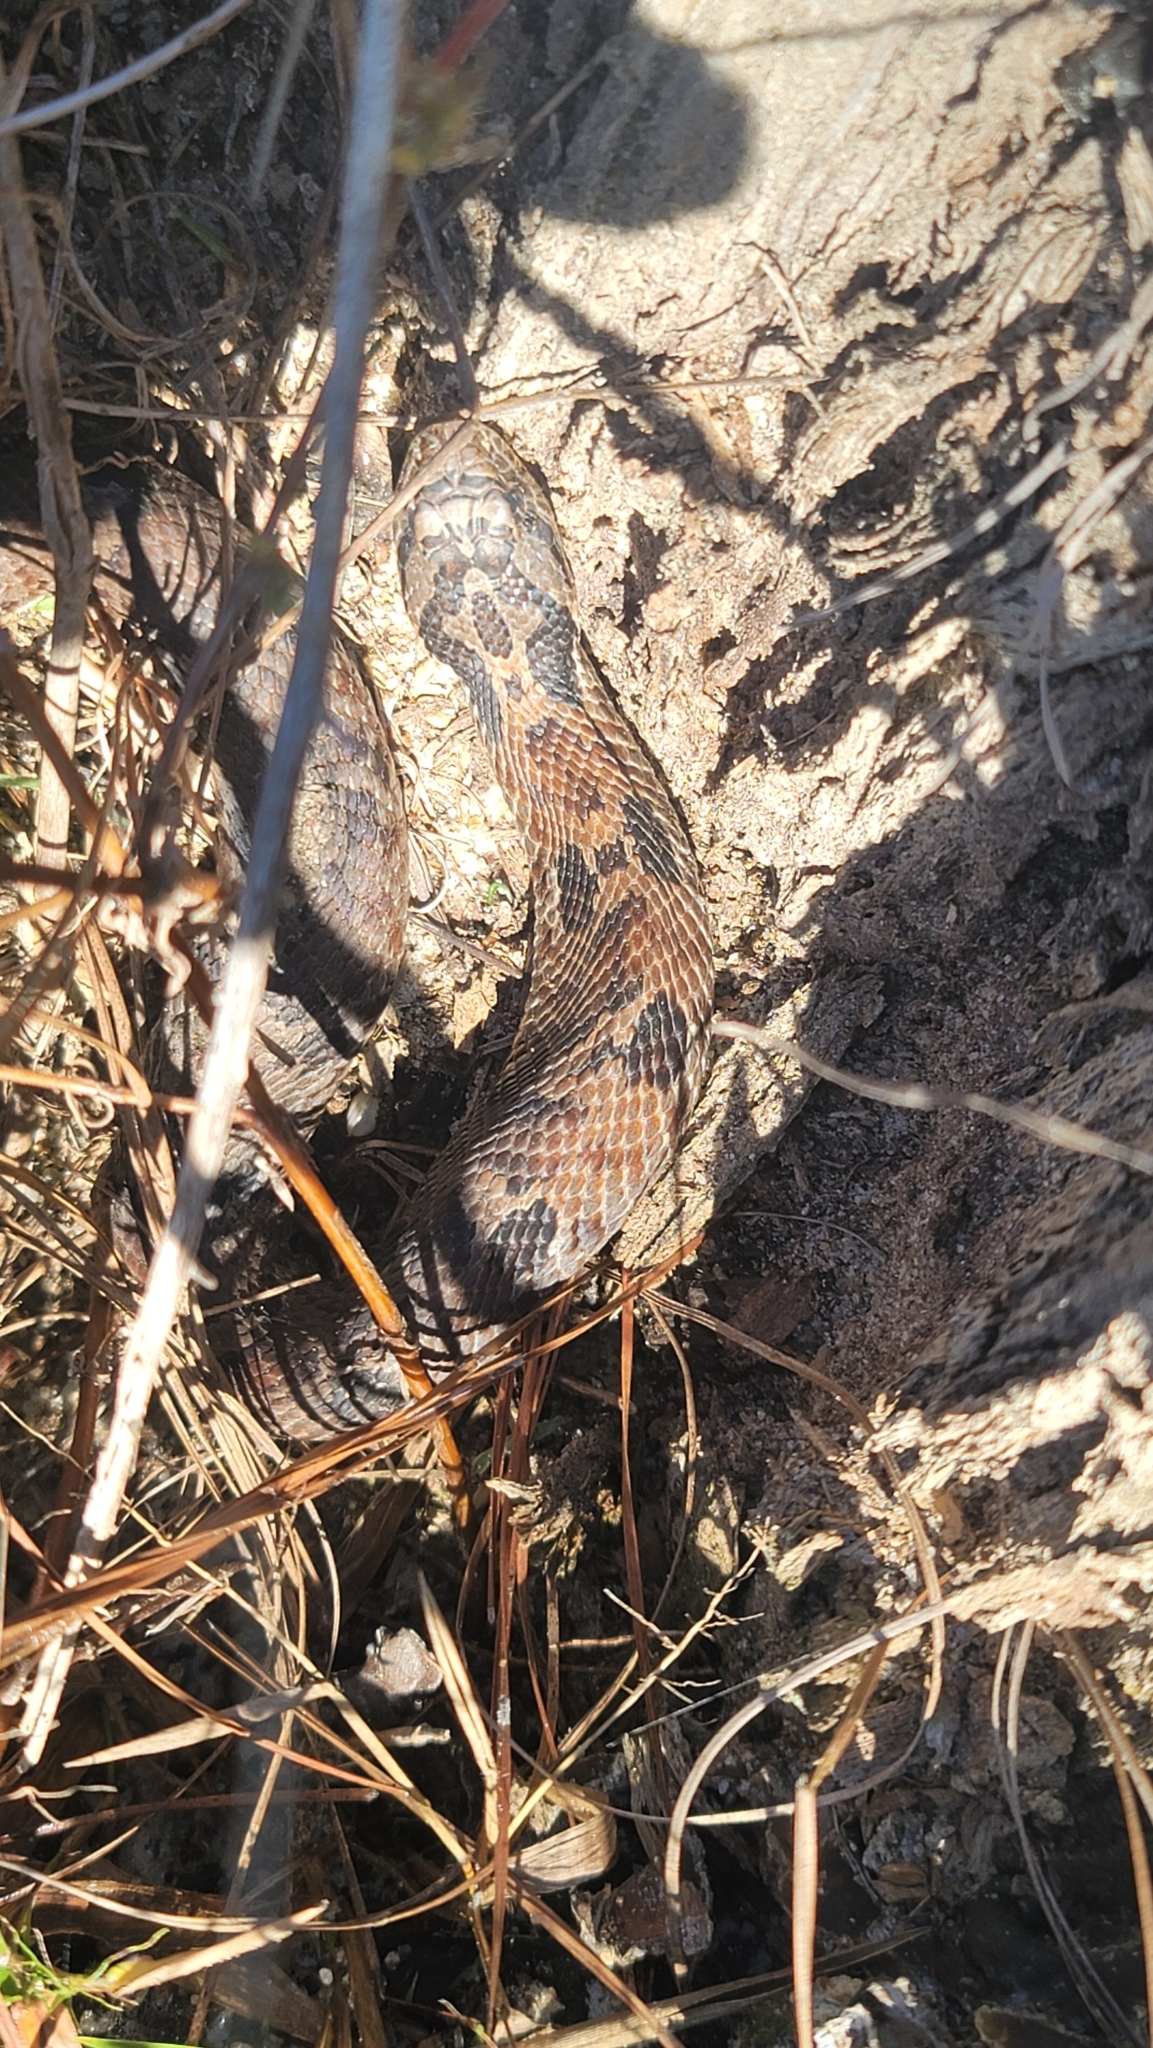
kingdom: Animalia
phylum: Chordata
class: Squamata
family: Colubridae
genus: Heterodon
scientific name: Heterodon platirhinos
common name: Eastern hognose snake
